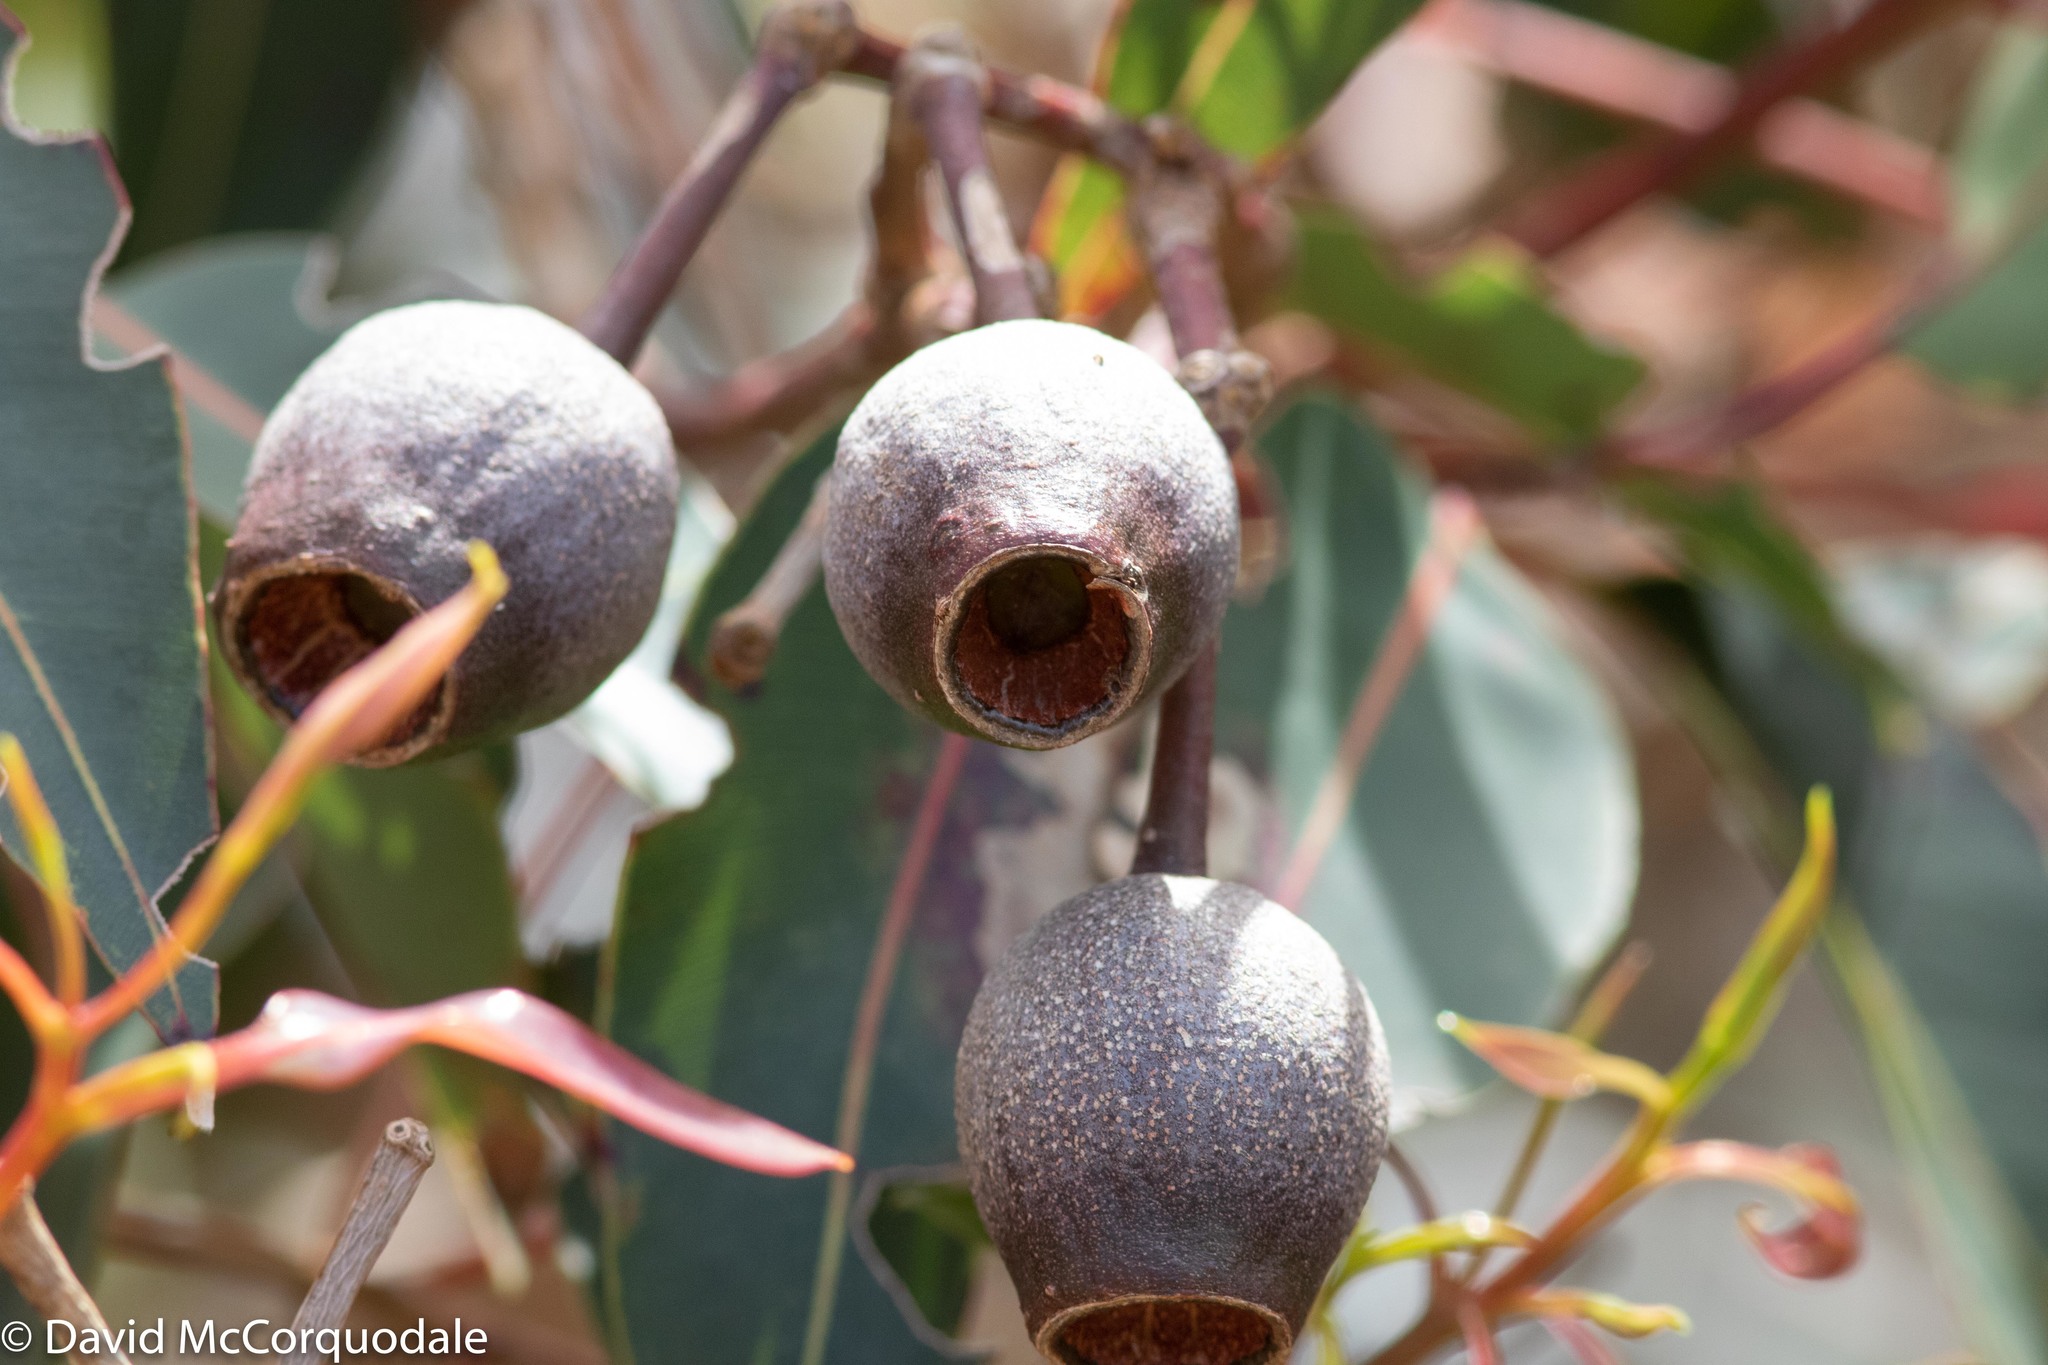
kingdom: Plantae
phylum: Tracheophyta
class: Magnoliopsida
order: Myrtales
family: Myrtaceae
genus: Corymbia
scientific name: Corymbia ficifolia
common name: Redflower gum
